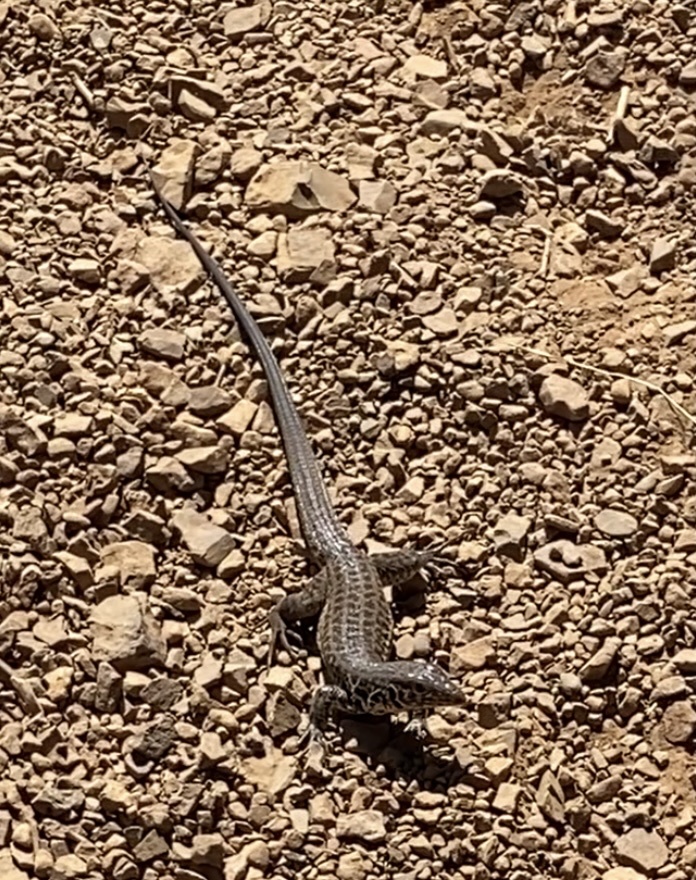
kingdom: Animalia
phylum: Chordata
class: Squamata
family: Teiidae
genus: Aspidoscelis
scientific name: Aspidoscelis tigris
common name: Tiger whiptail
